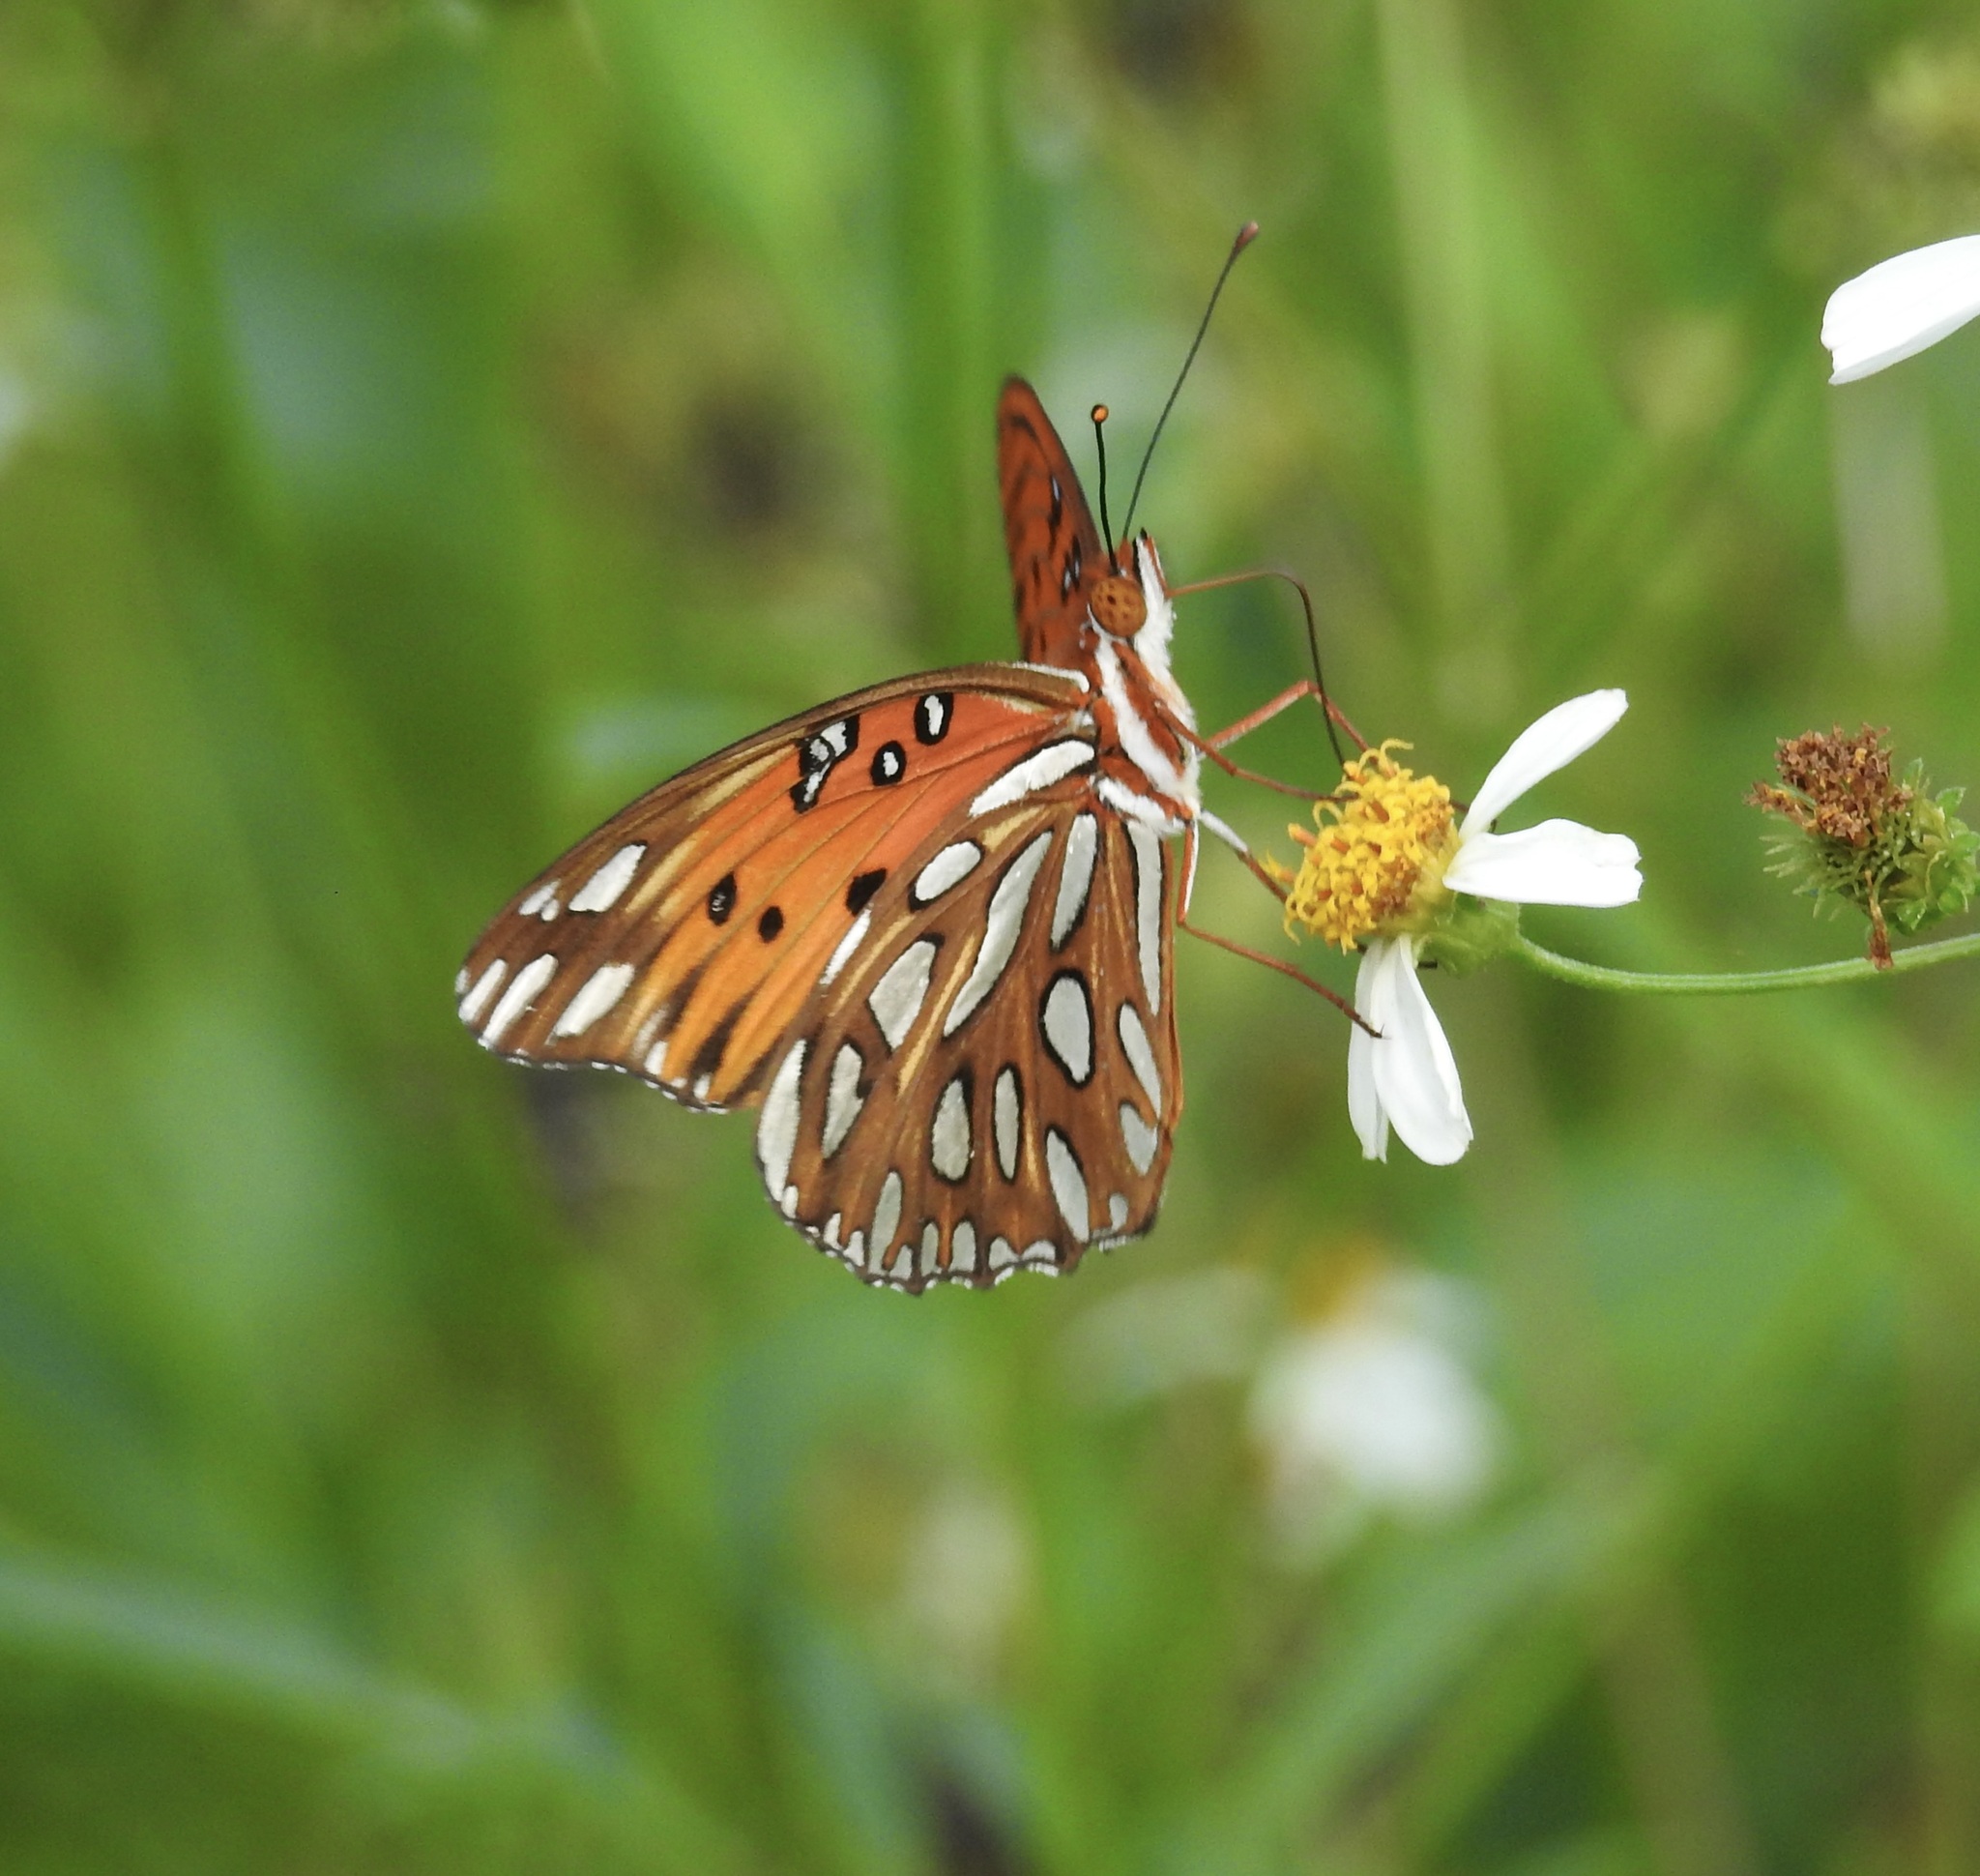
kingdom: Animalia
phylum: Arthropoda
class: Insecta
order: Lepidoptera
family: Nymphalidae
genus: Dione
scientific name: Dione vanillae
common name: Gulf fritillary
